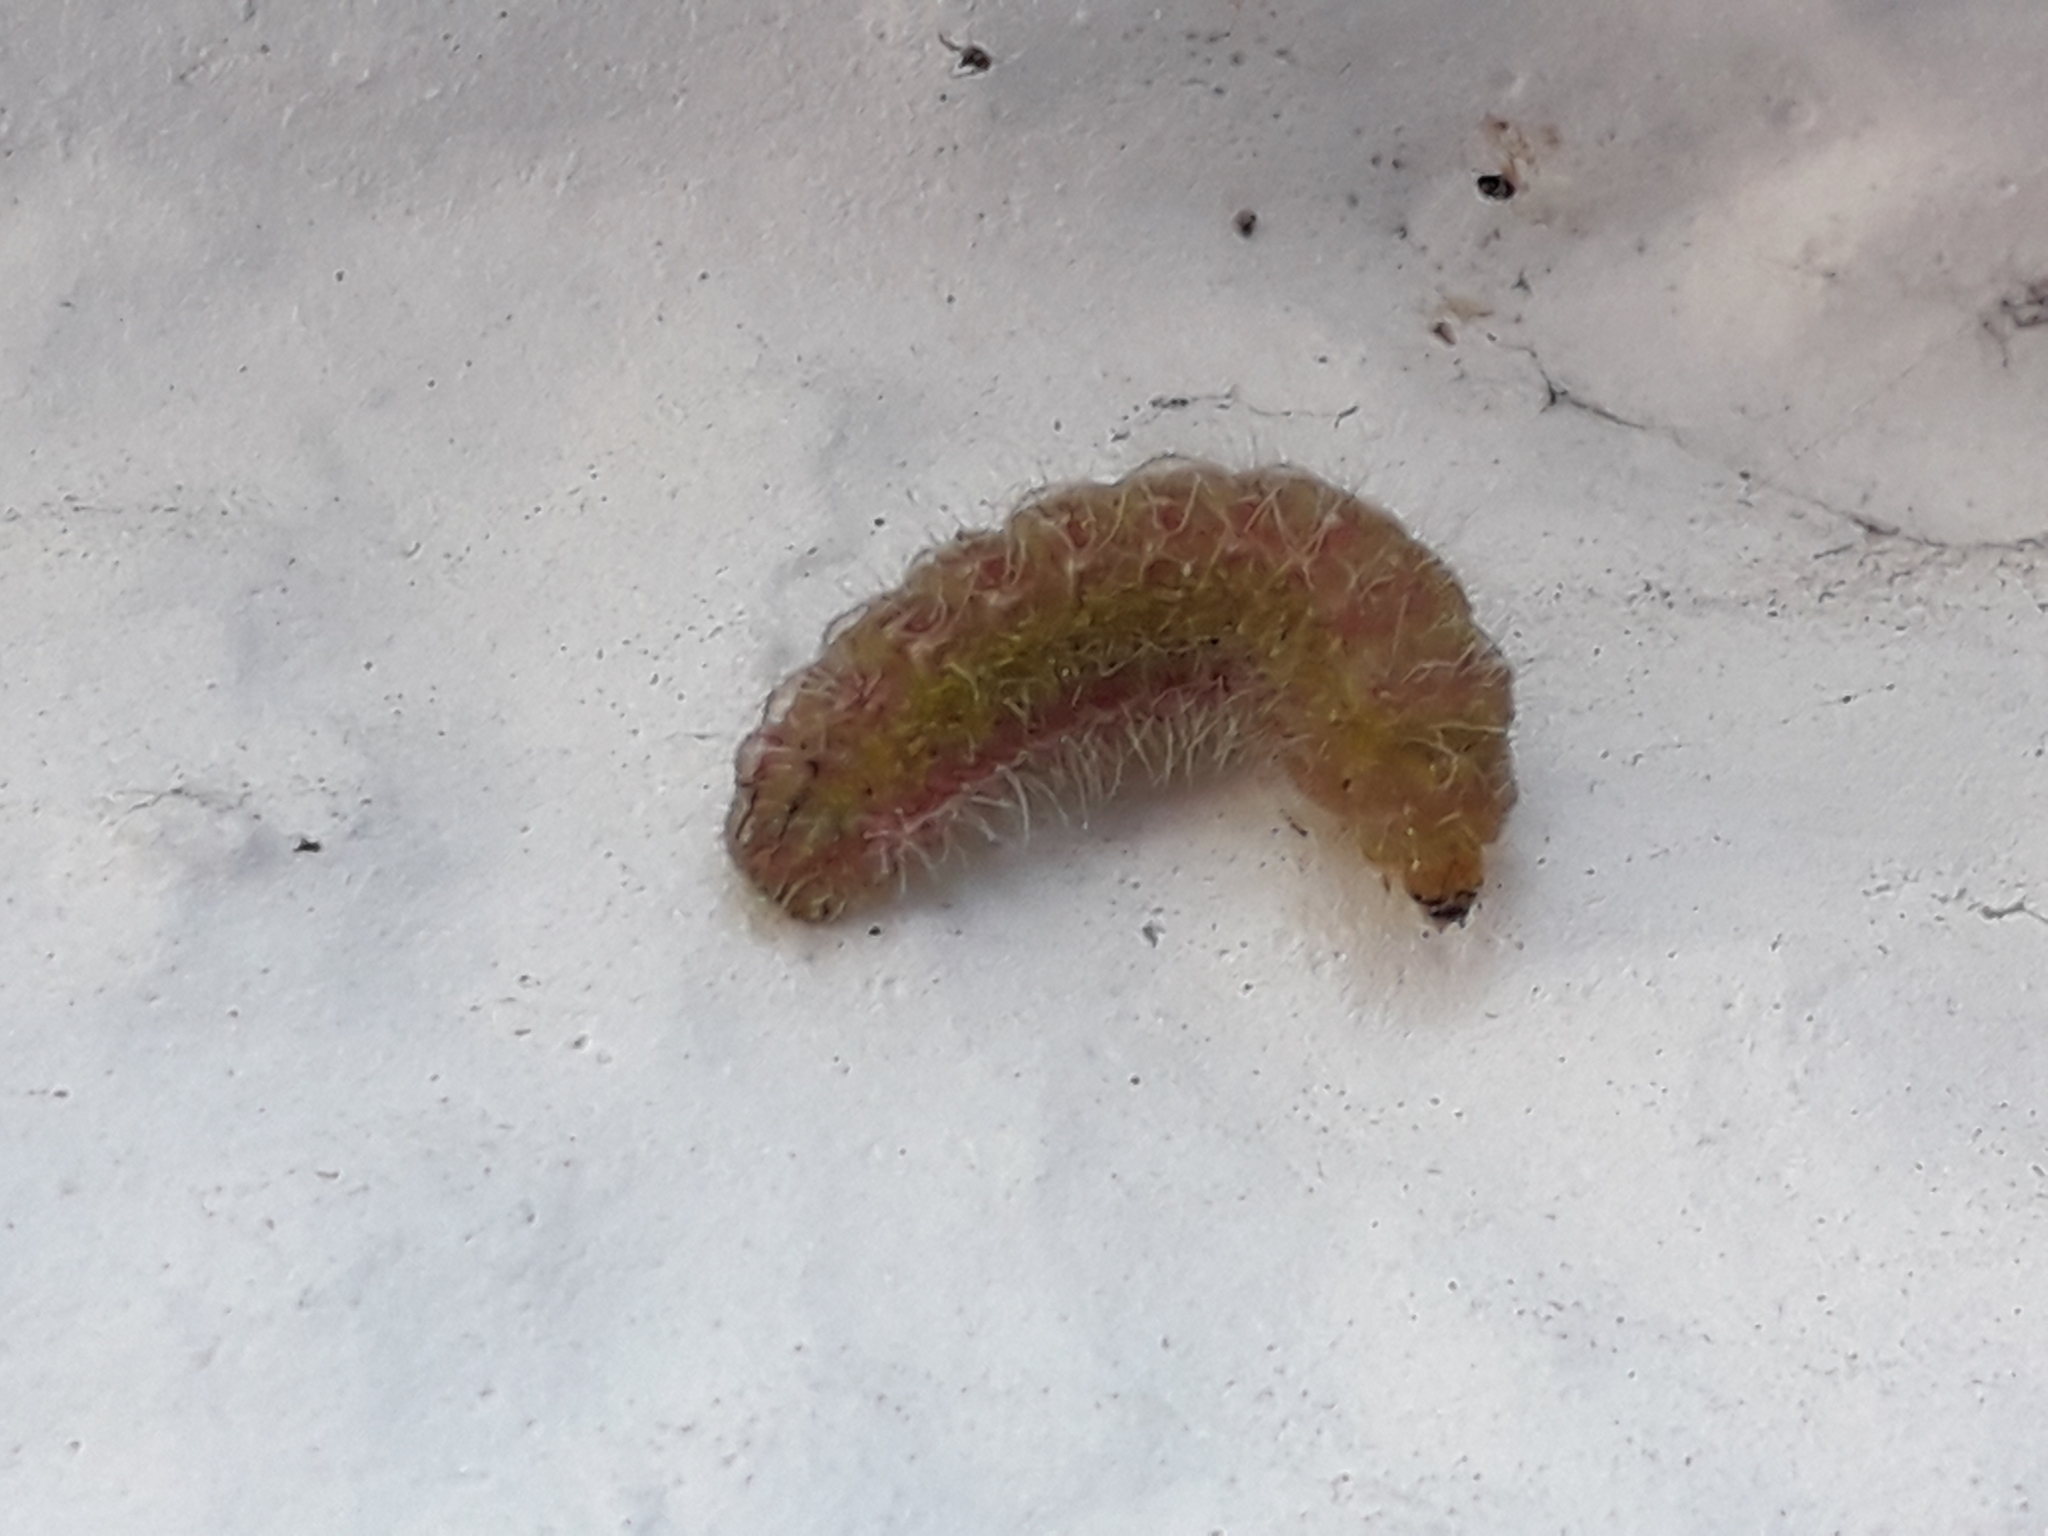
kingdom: Animalia
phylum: Arthropoda
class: Insecta
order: Lepidoptera
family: Lycaenidae
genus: Cacyreus
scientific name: Cacyreus marshalli
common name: Geranium bronze
